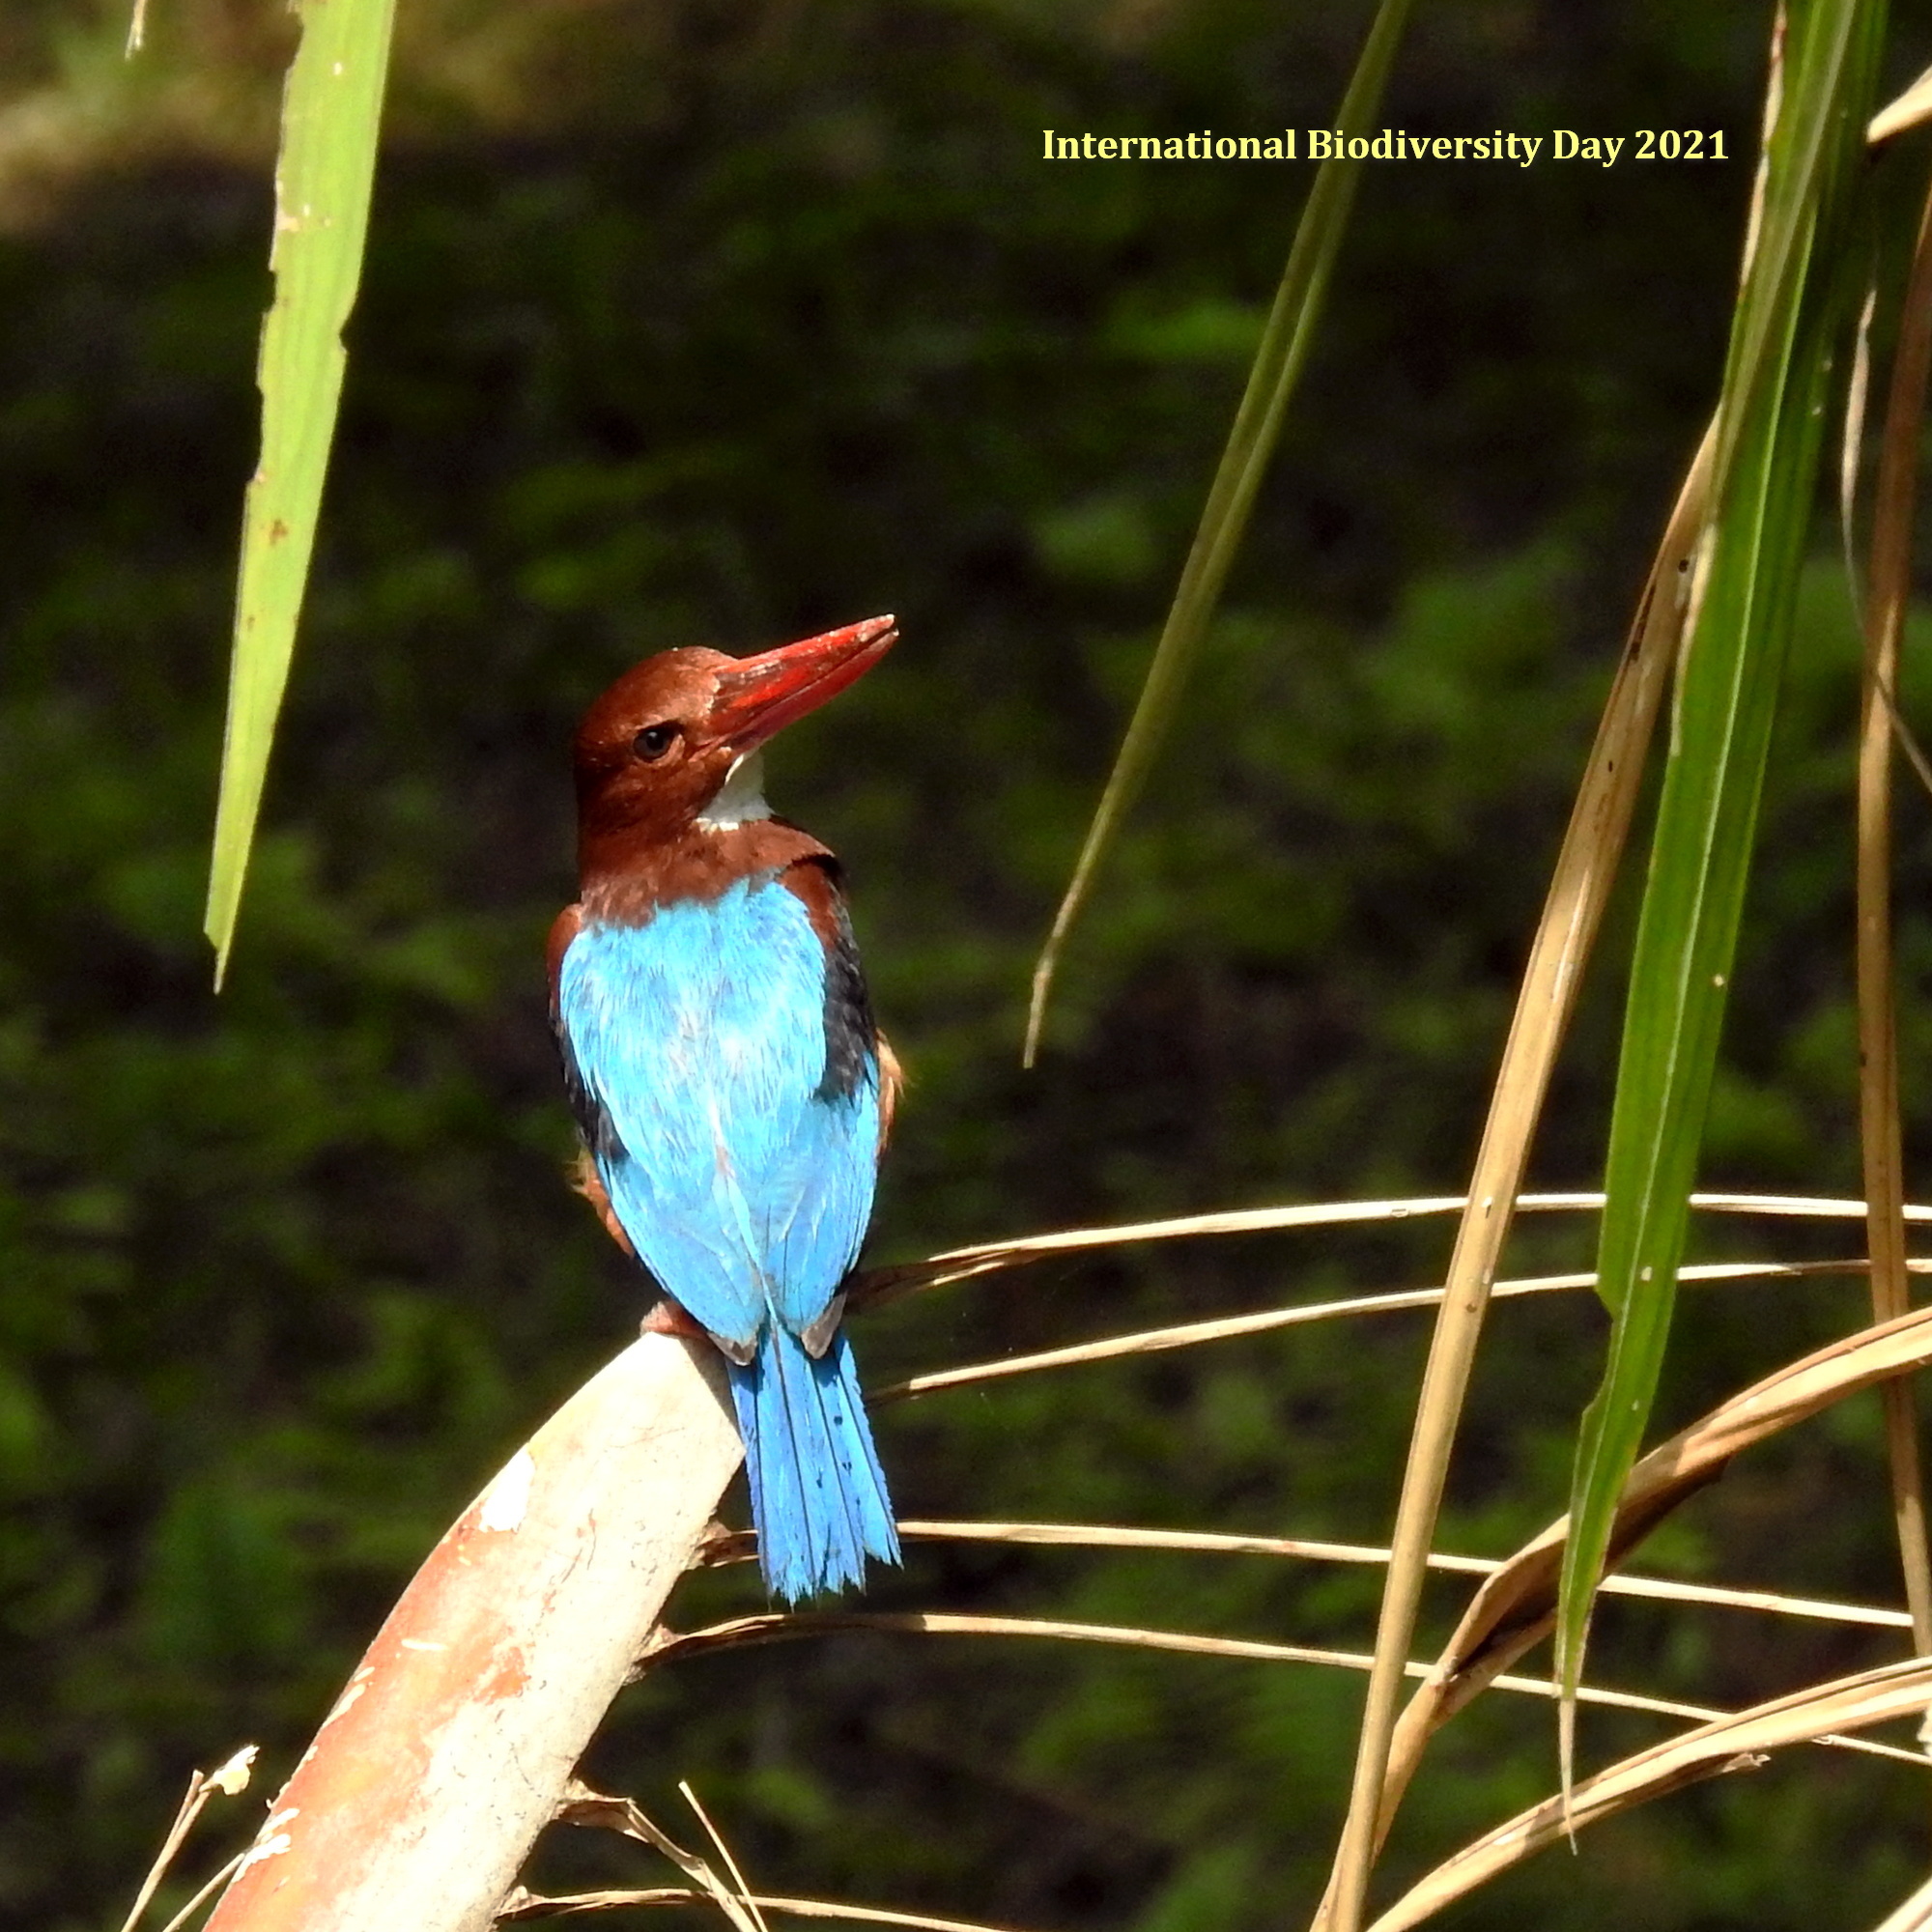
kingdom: Animalia
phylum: Chordata
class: Aves
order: Coraciiformes
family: Alcedinidae
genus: Halcyon
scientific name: Halcyon smyrnensis
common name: White-throated kingfisher
